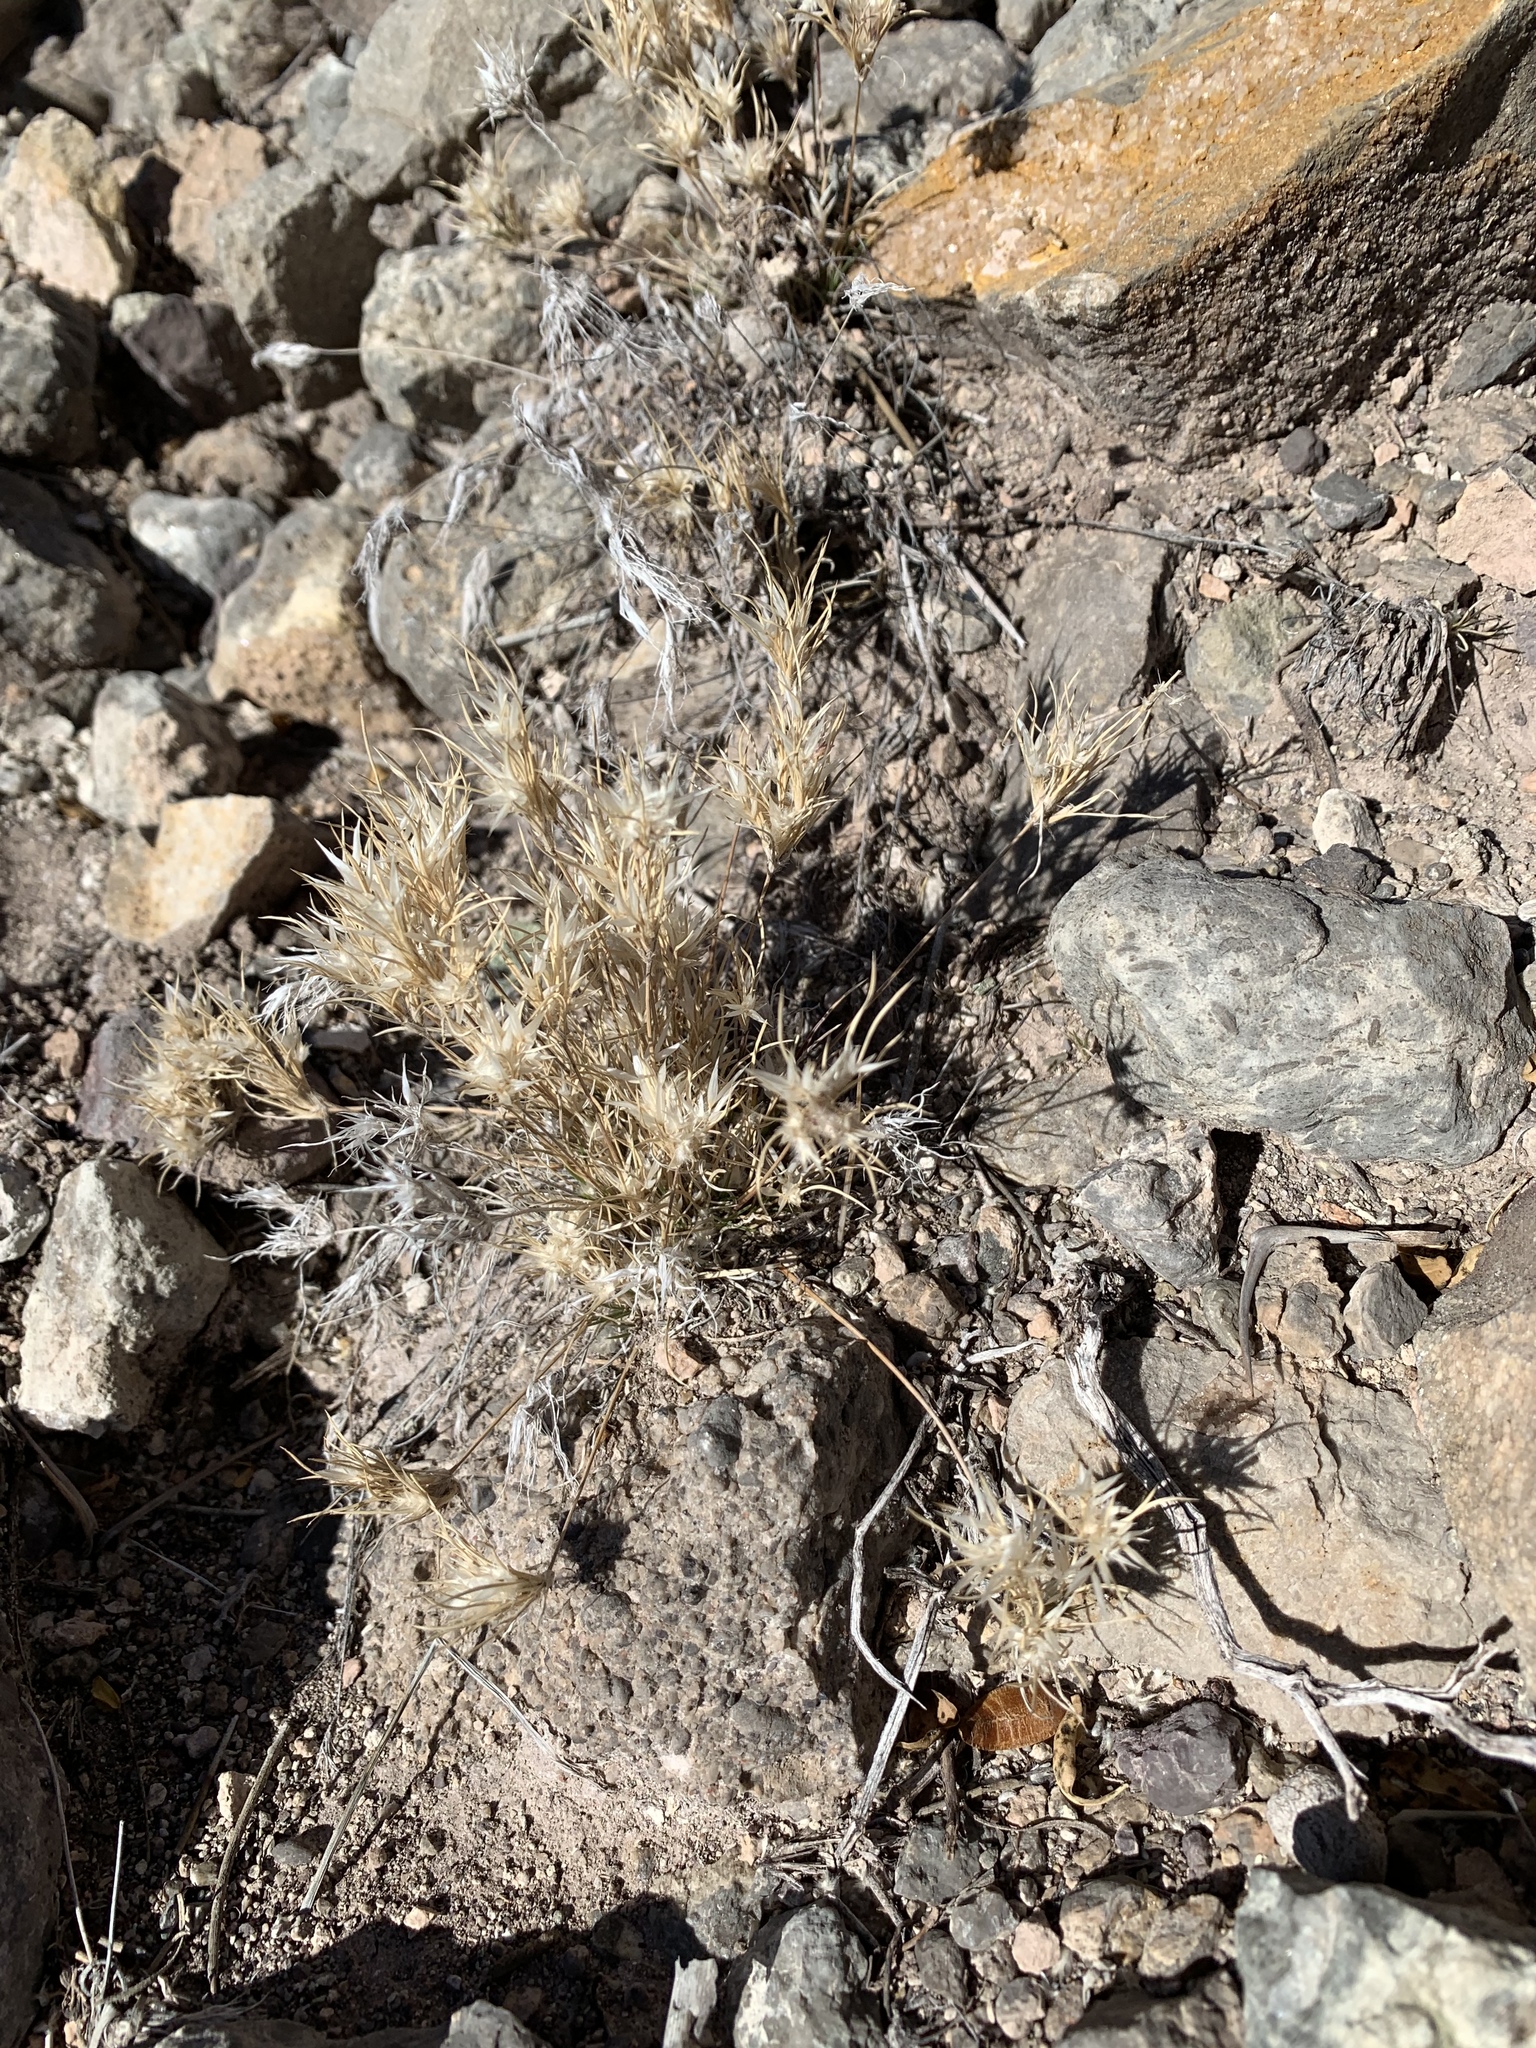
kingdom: Plantae
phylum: Tracheophyta
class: Liliopsida
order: Poales
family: Poaceae
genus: Dasyochloa
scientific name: Dasyochloa pulchella
